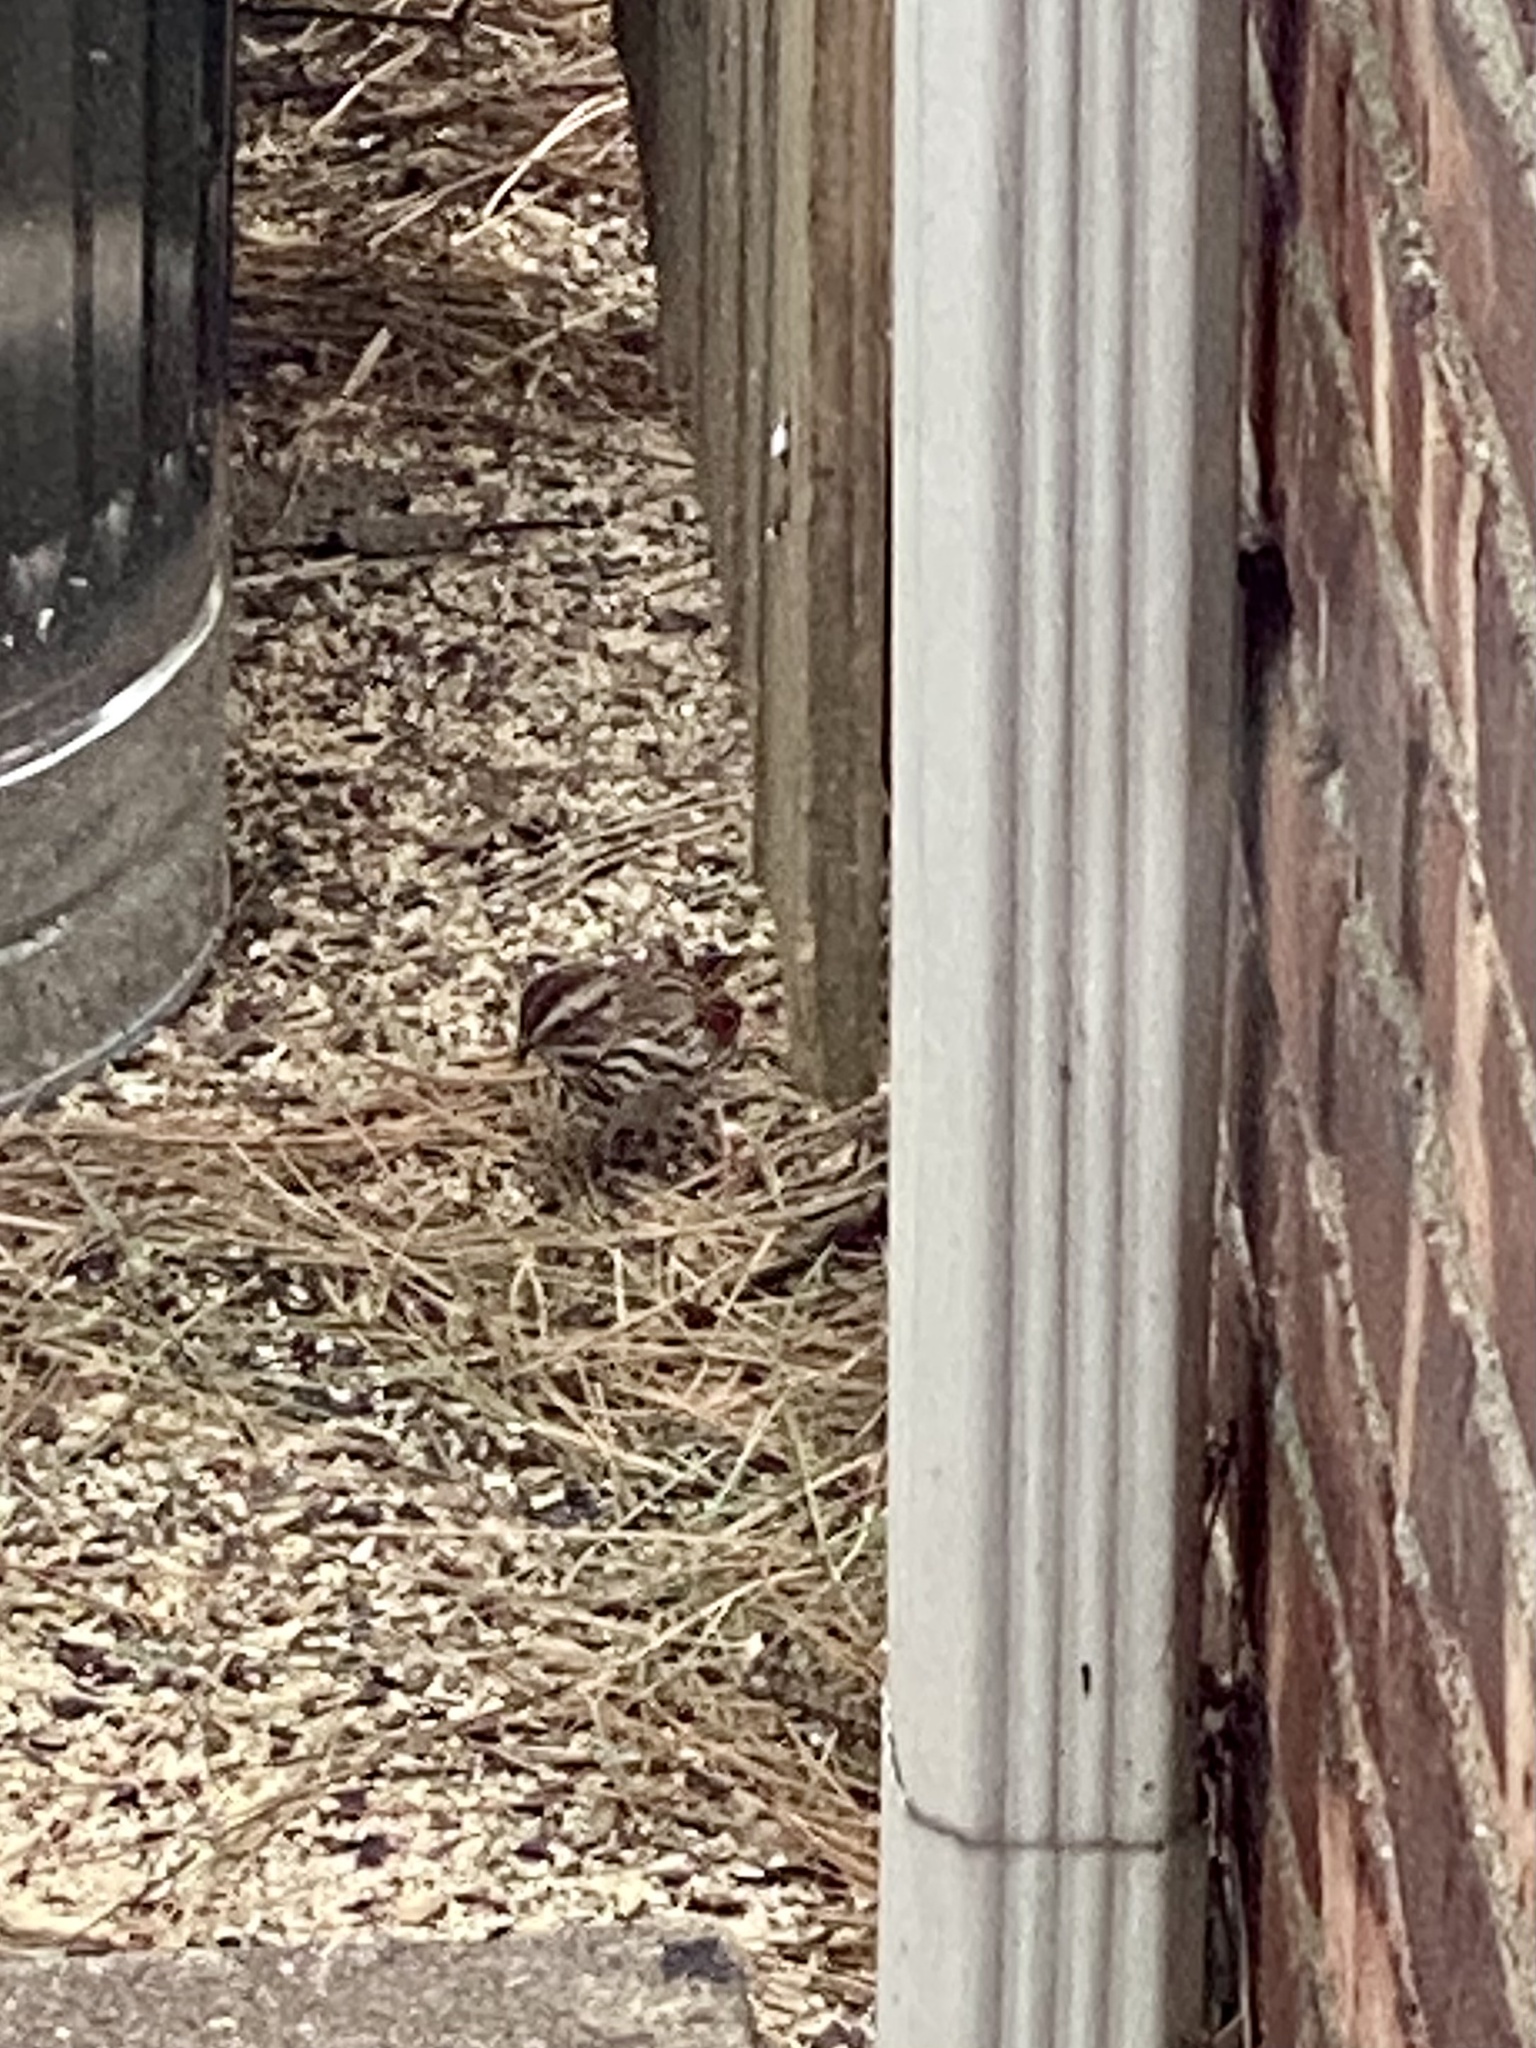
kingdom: Animalia
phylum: Chordata
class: Aves
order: Passeriformes
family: Passerellidae
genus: Melospiza
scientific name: Melospiza melodia
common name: Song sparrow
